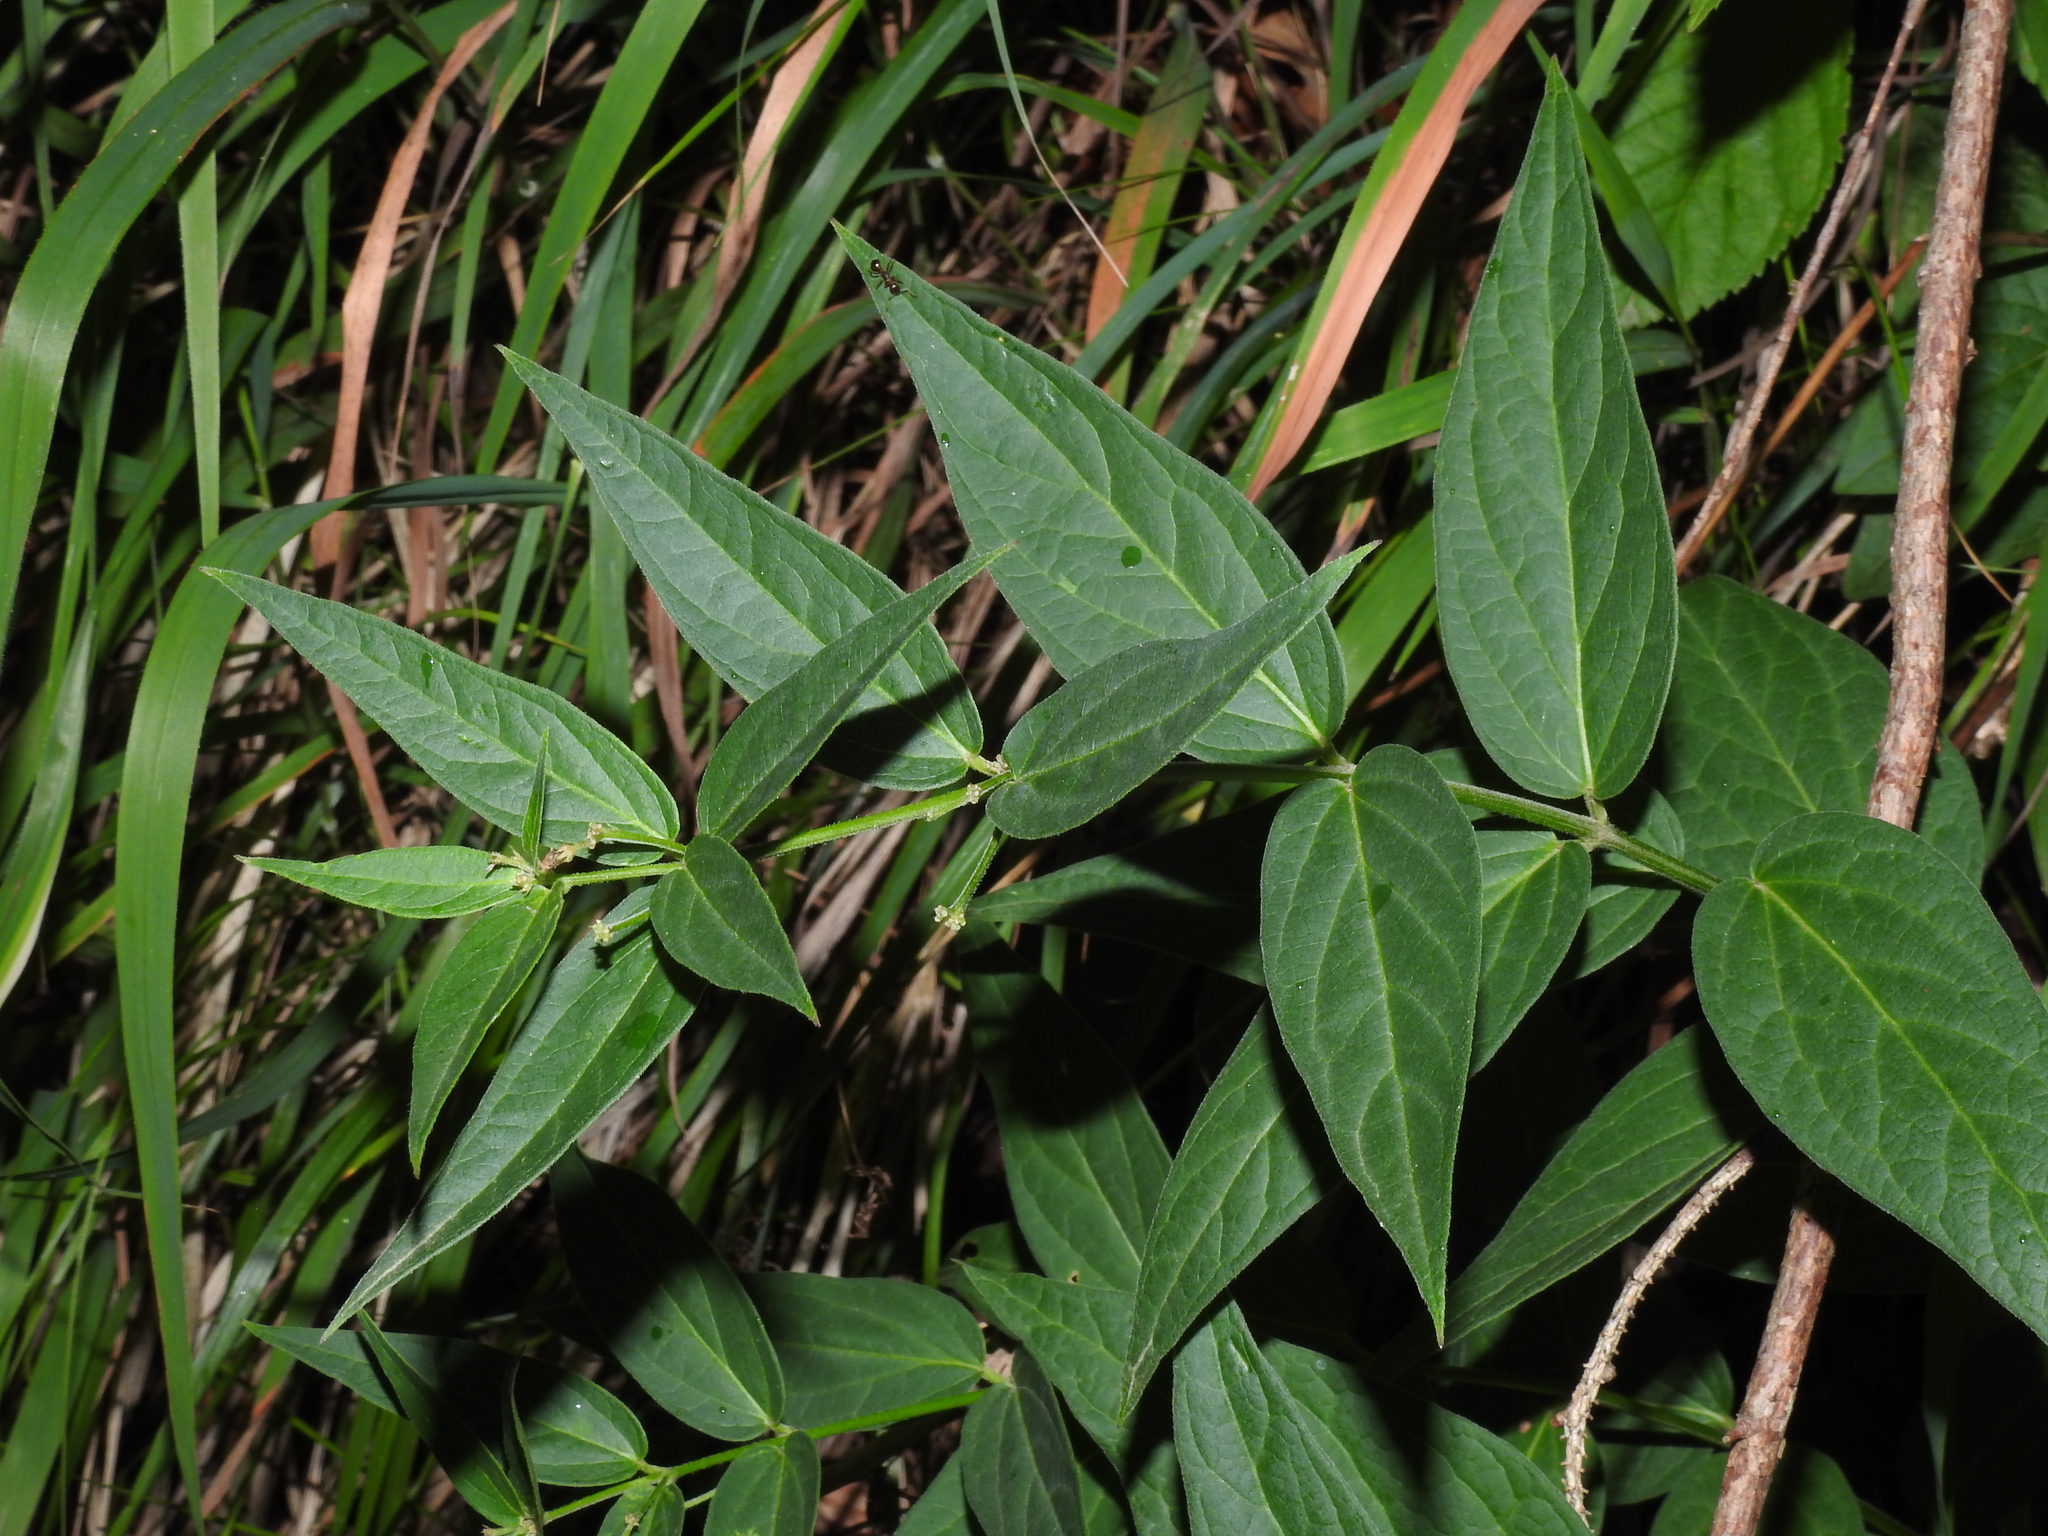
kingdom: Plantae
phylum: Tracheophyta
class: Magnoliopsida
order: Gentianales
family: Apocynaceae
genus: Vincetoxicum
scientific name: Vincetoxicum hirundinaria
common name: White swallowwort
